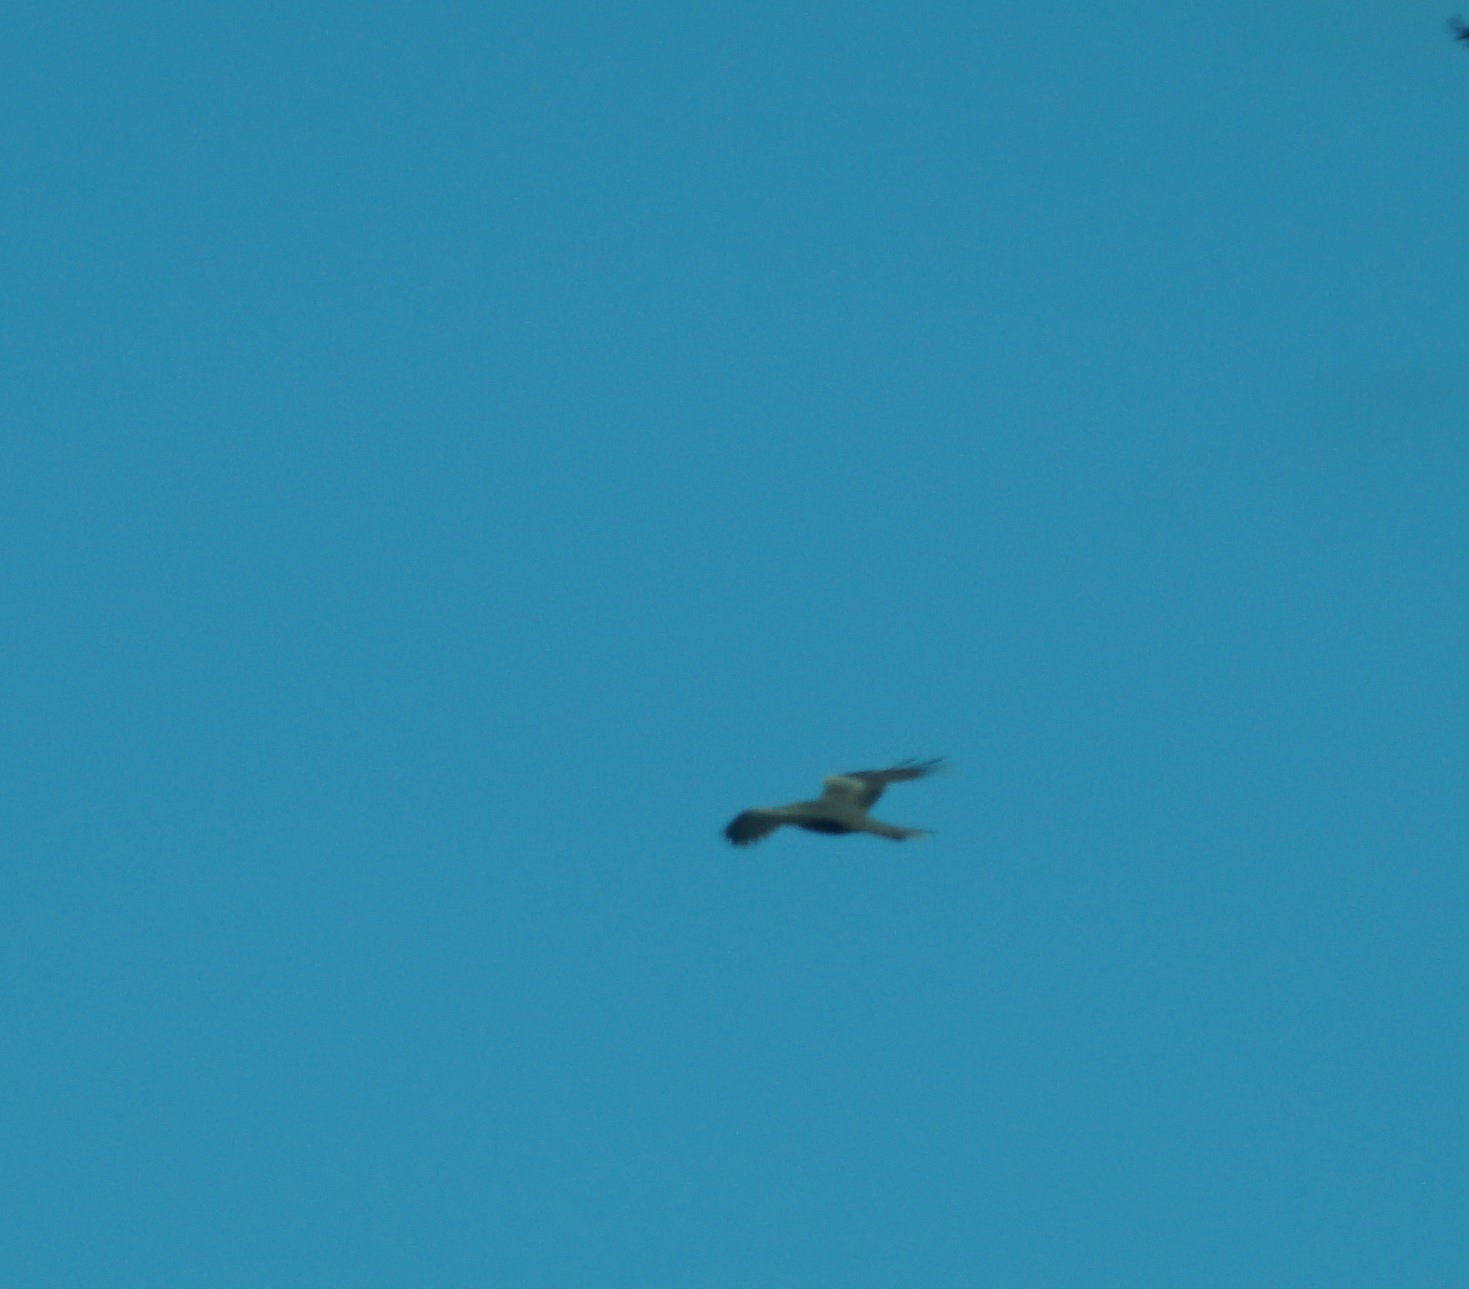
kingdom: Animalia
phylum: Chordata
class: Aves
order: Accipitriformes
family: Accipitridae
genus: Milvus
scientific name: Milvus migrans
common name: Black kite
